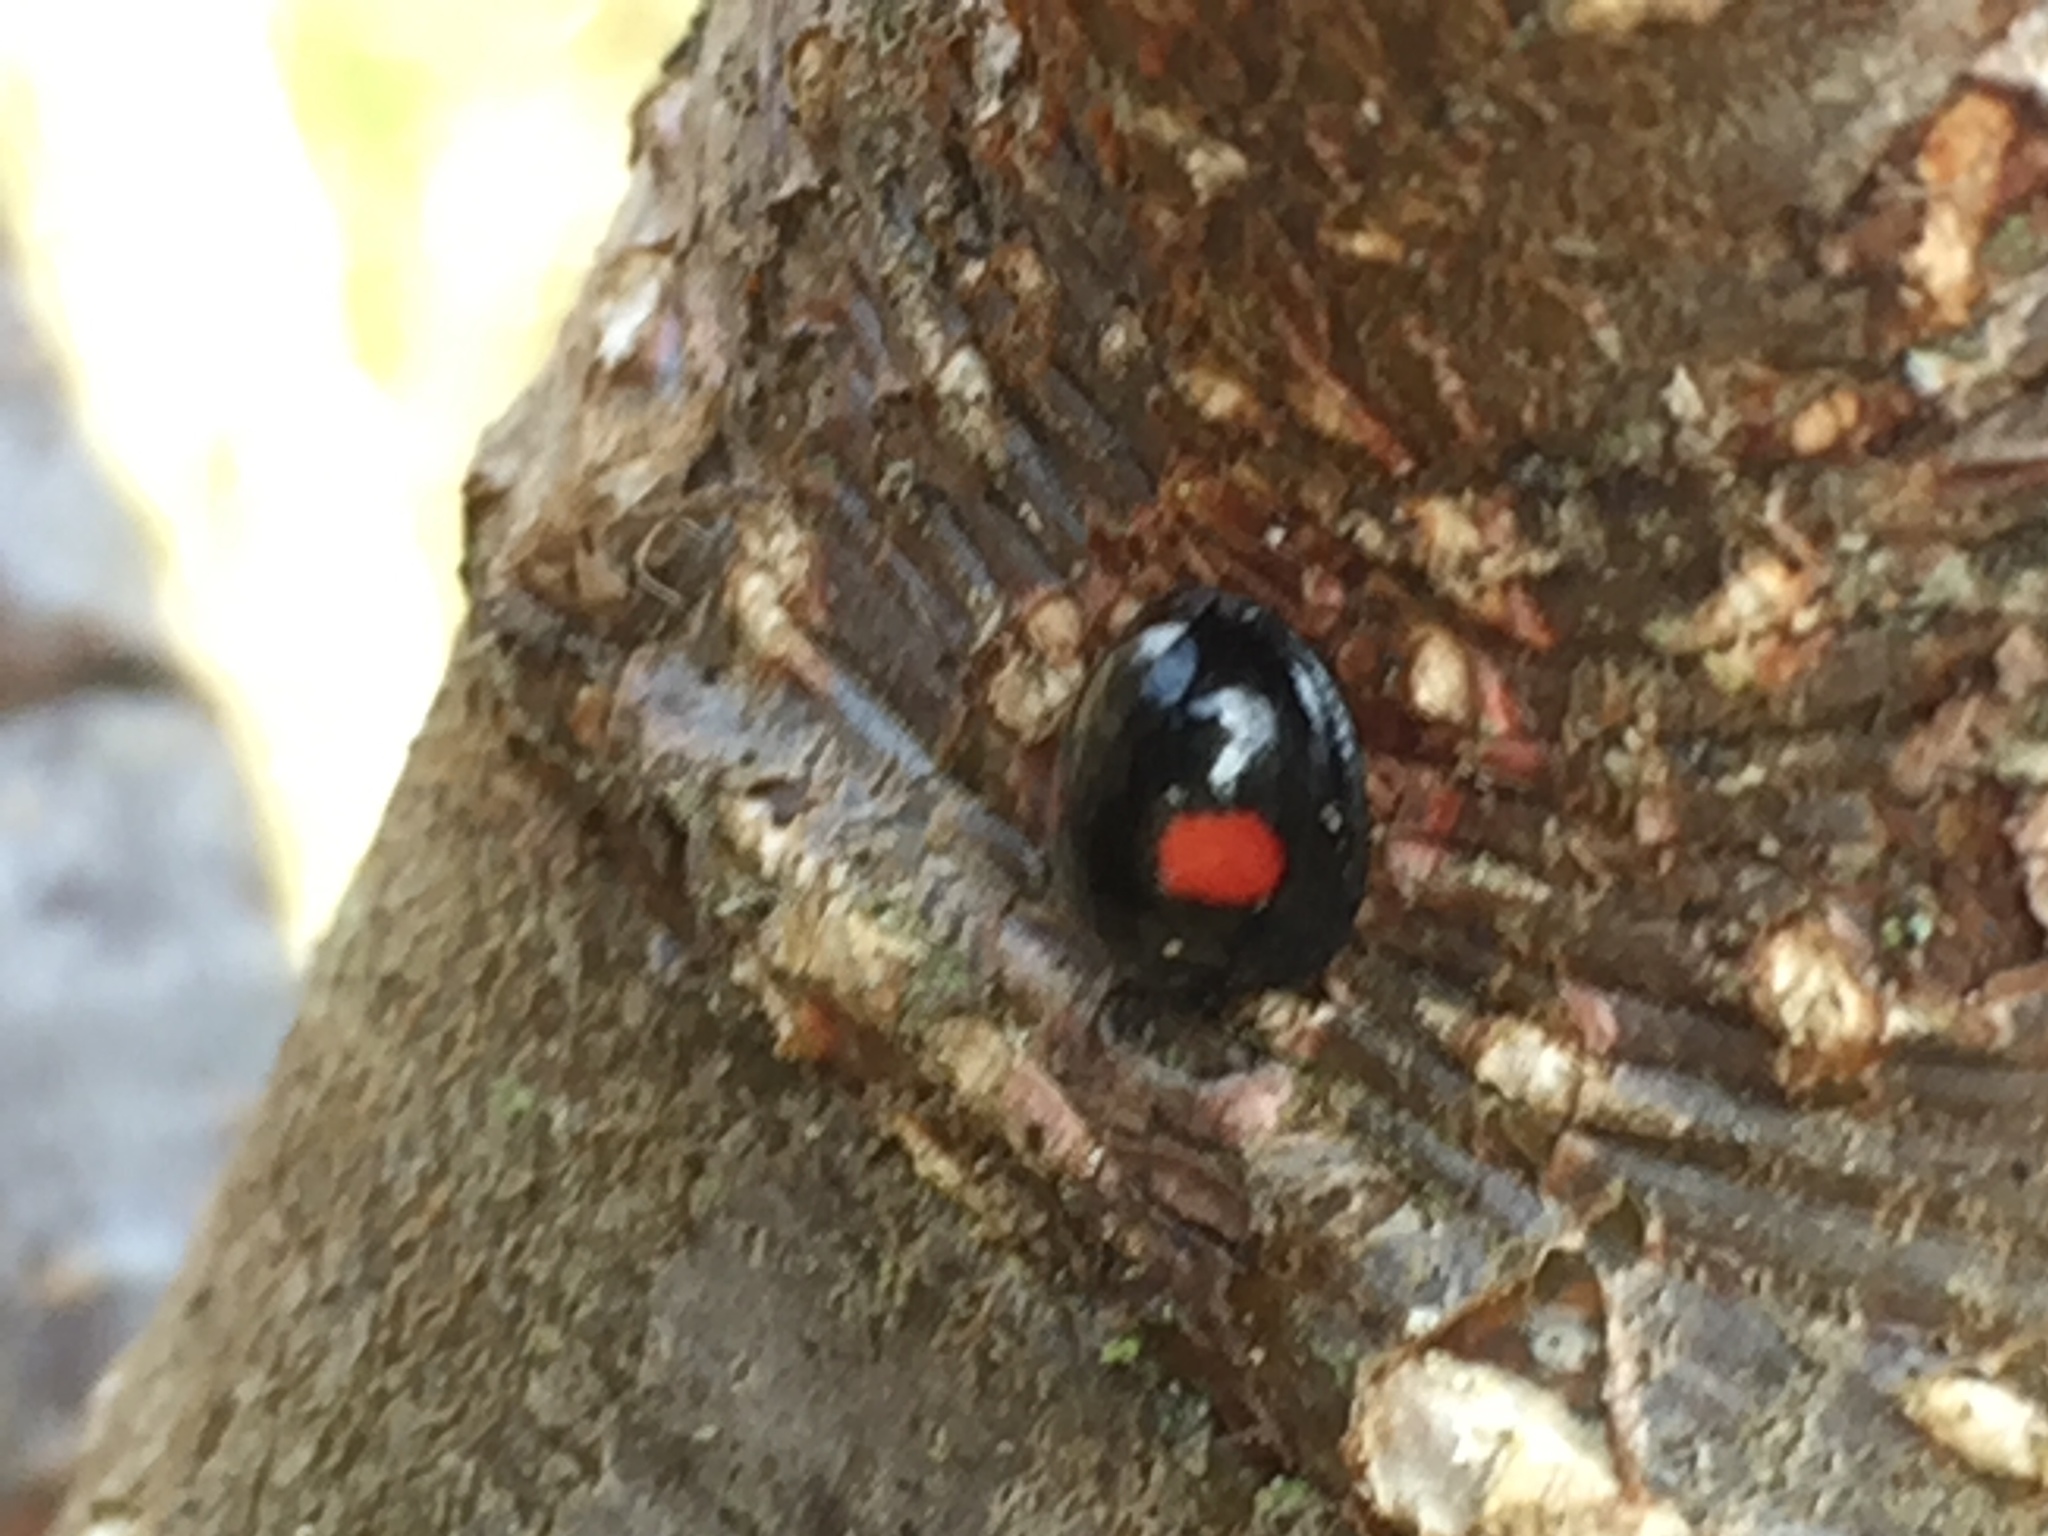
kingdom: Animalia
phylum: Arthropoda
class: Insecta
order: Coleoptera
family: Coccinellidae
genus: Chilocorus
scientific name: Chilocorus renipustulatus
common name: Kidney-spot ladybird
